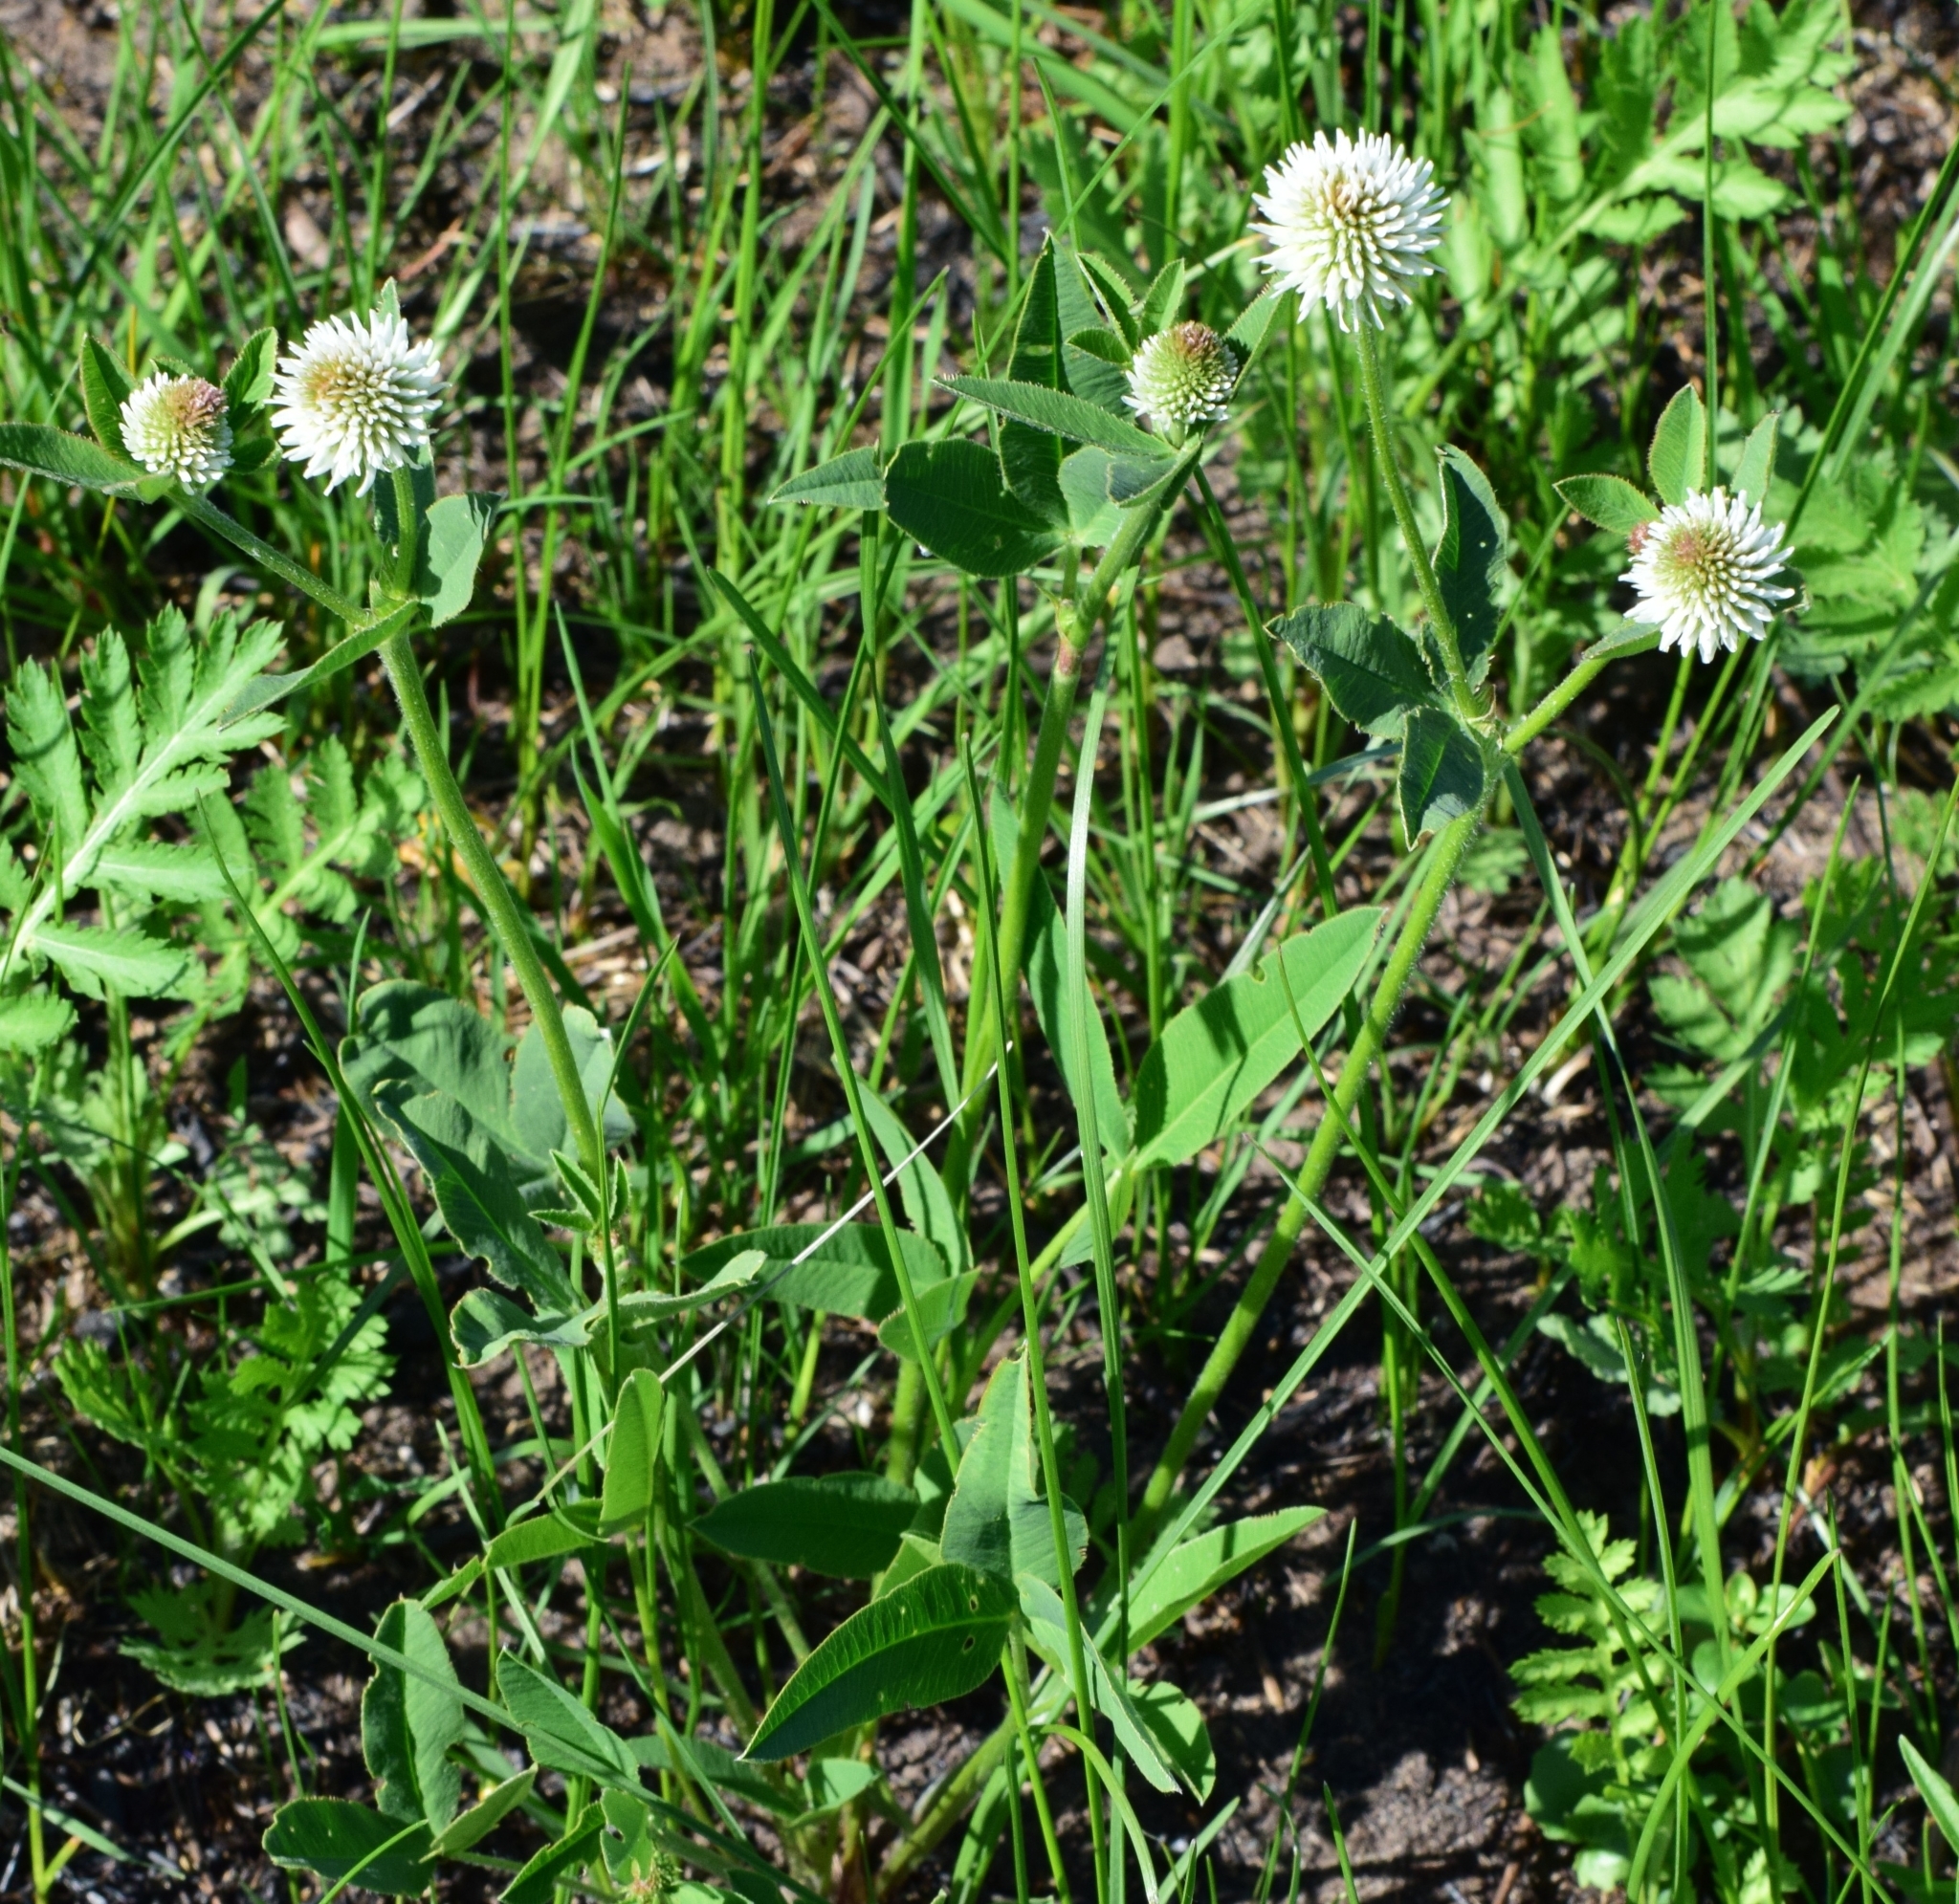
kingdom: Plantae
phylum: Tracheophyta
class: Magnoliopsida
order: Fabales
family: Fabaceae
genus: Trifolium
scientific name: Trifolium montanum
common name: Mountain clover
